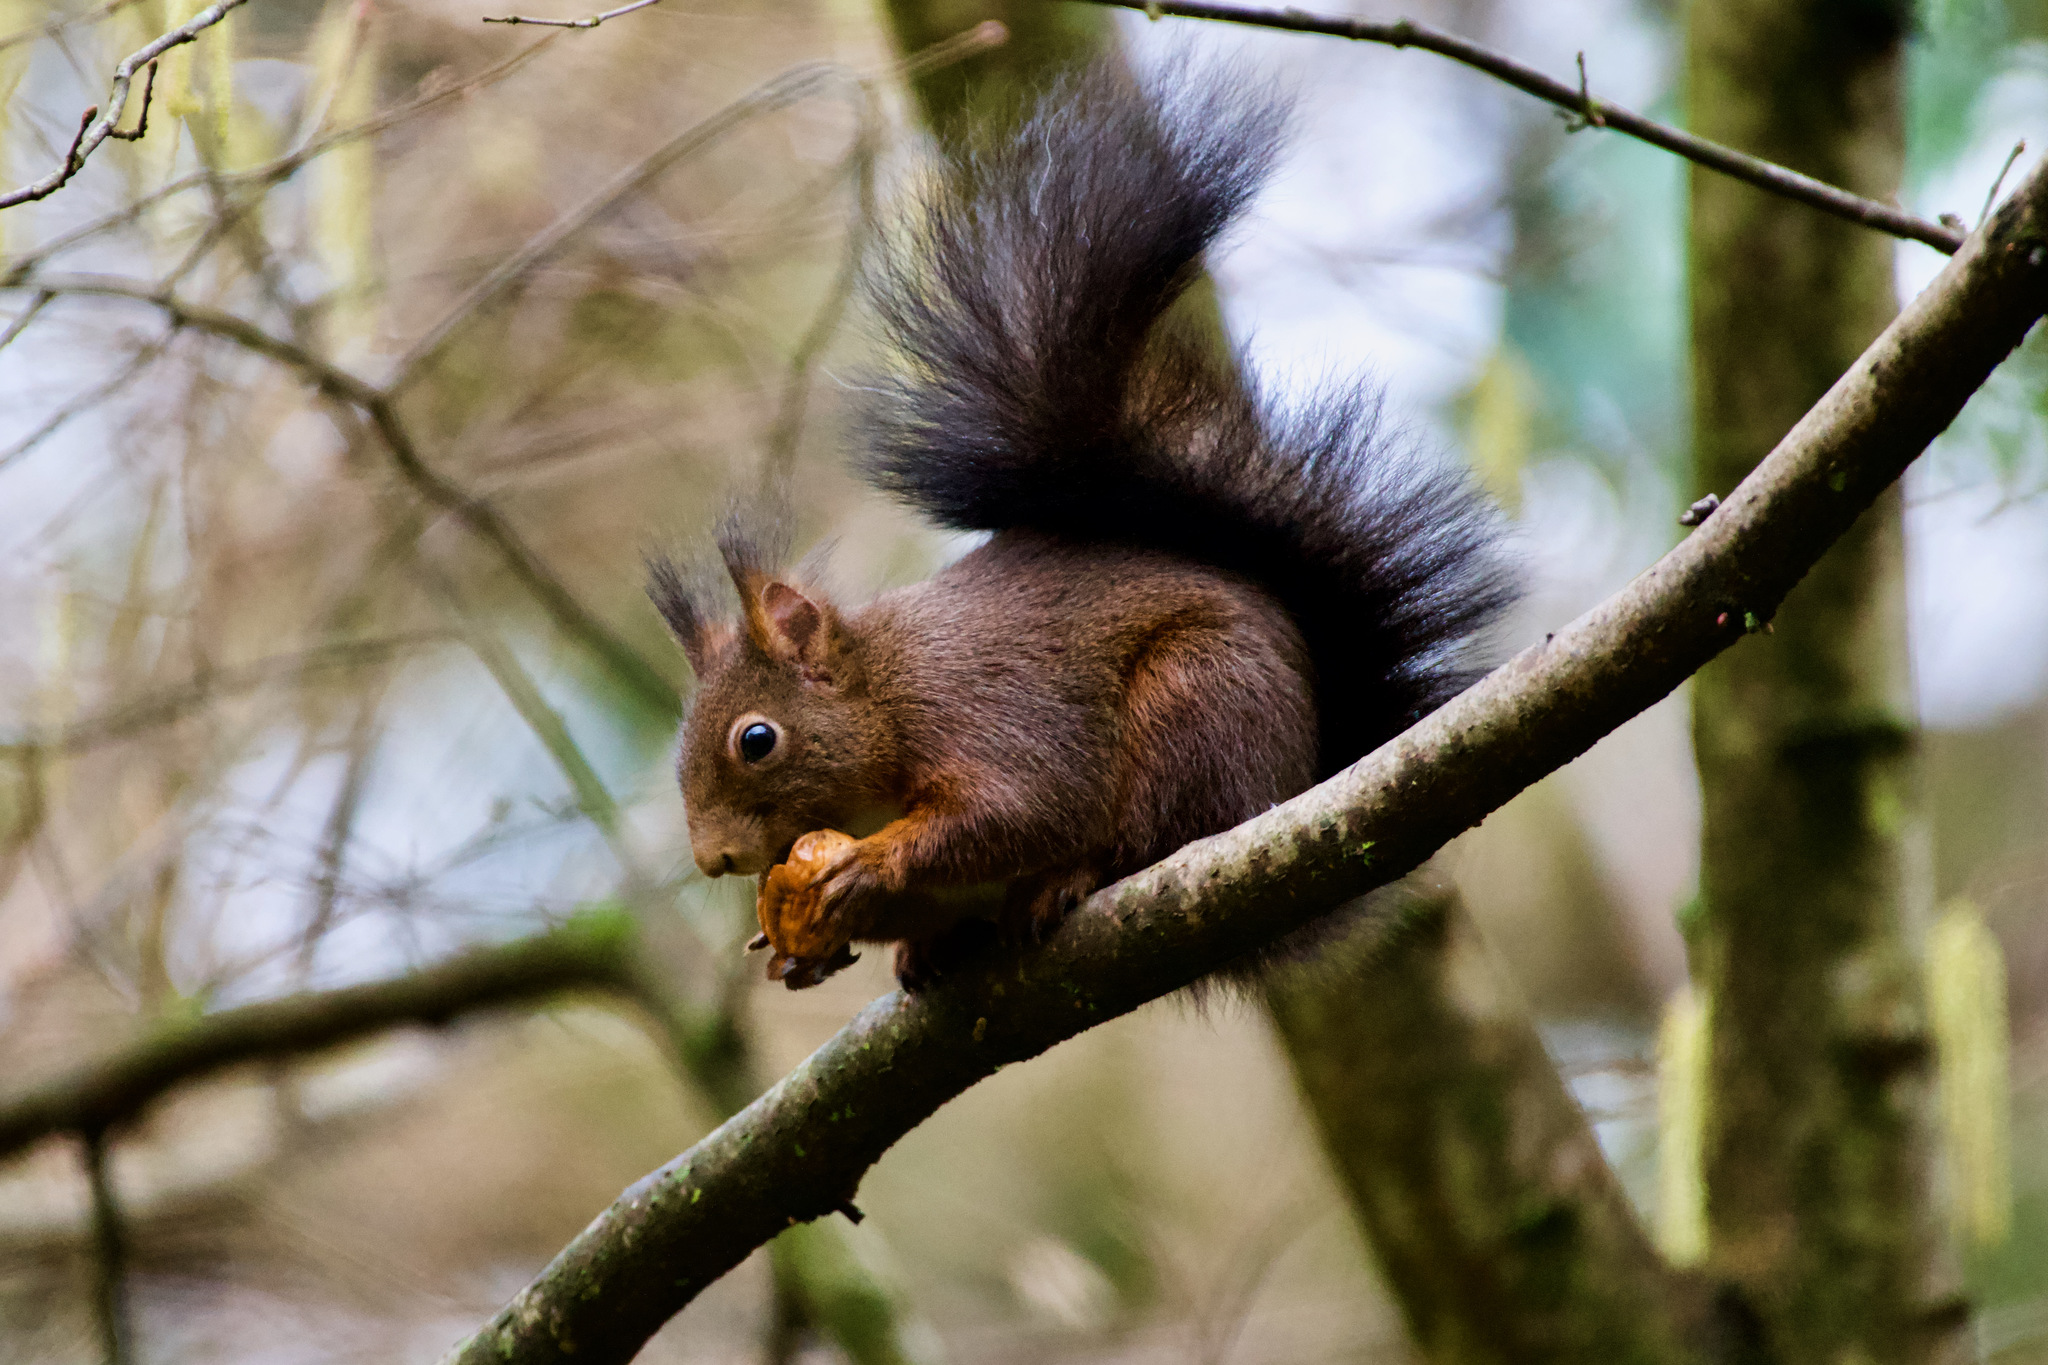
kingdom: Animalia
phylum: Chordata
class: Mammalia
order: Rodentia
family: Sciuridae
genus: Sciurus
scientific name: Sciurus vulgaris
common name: Eurasian red squirrel
